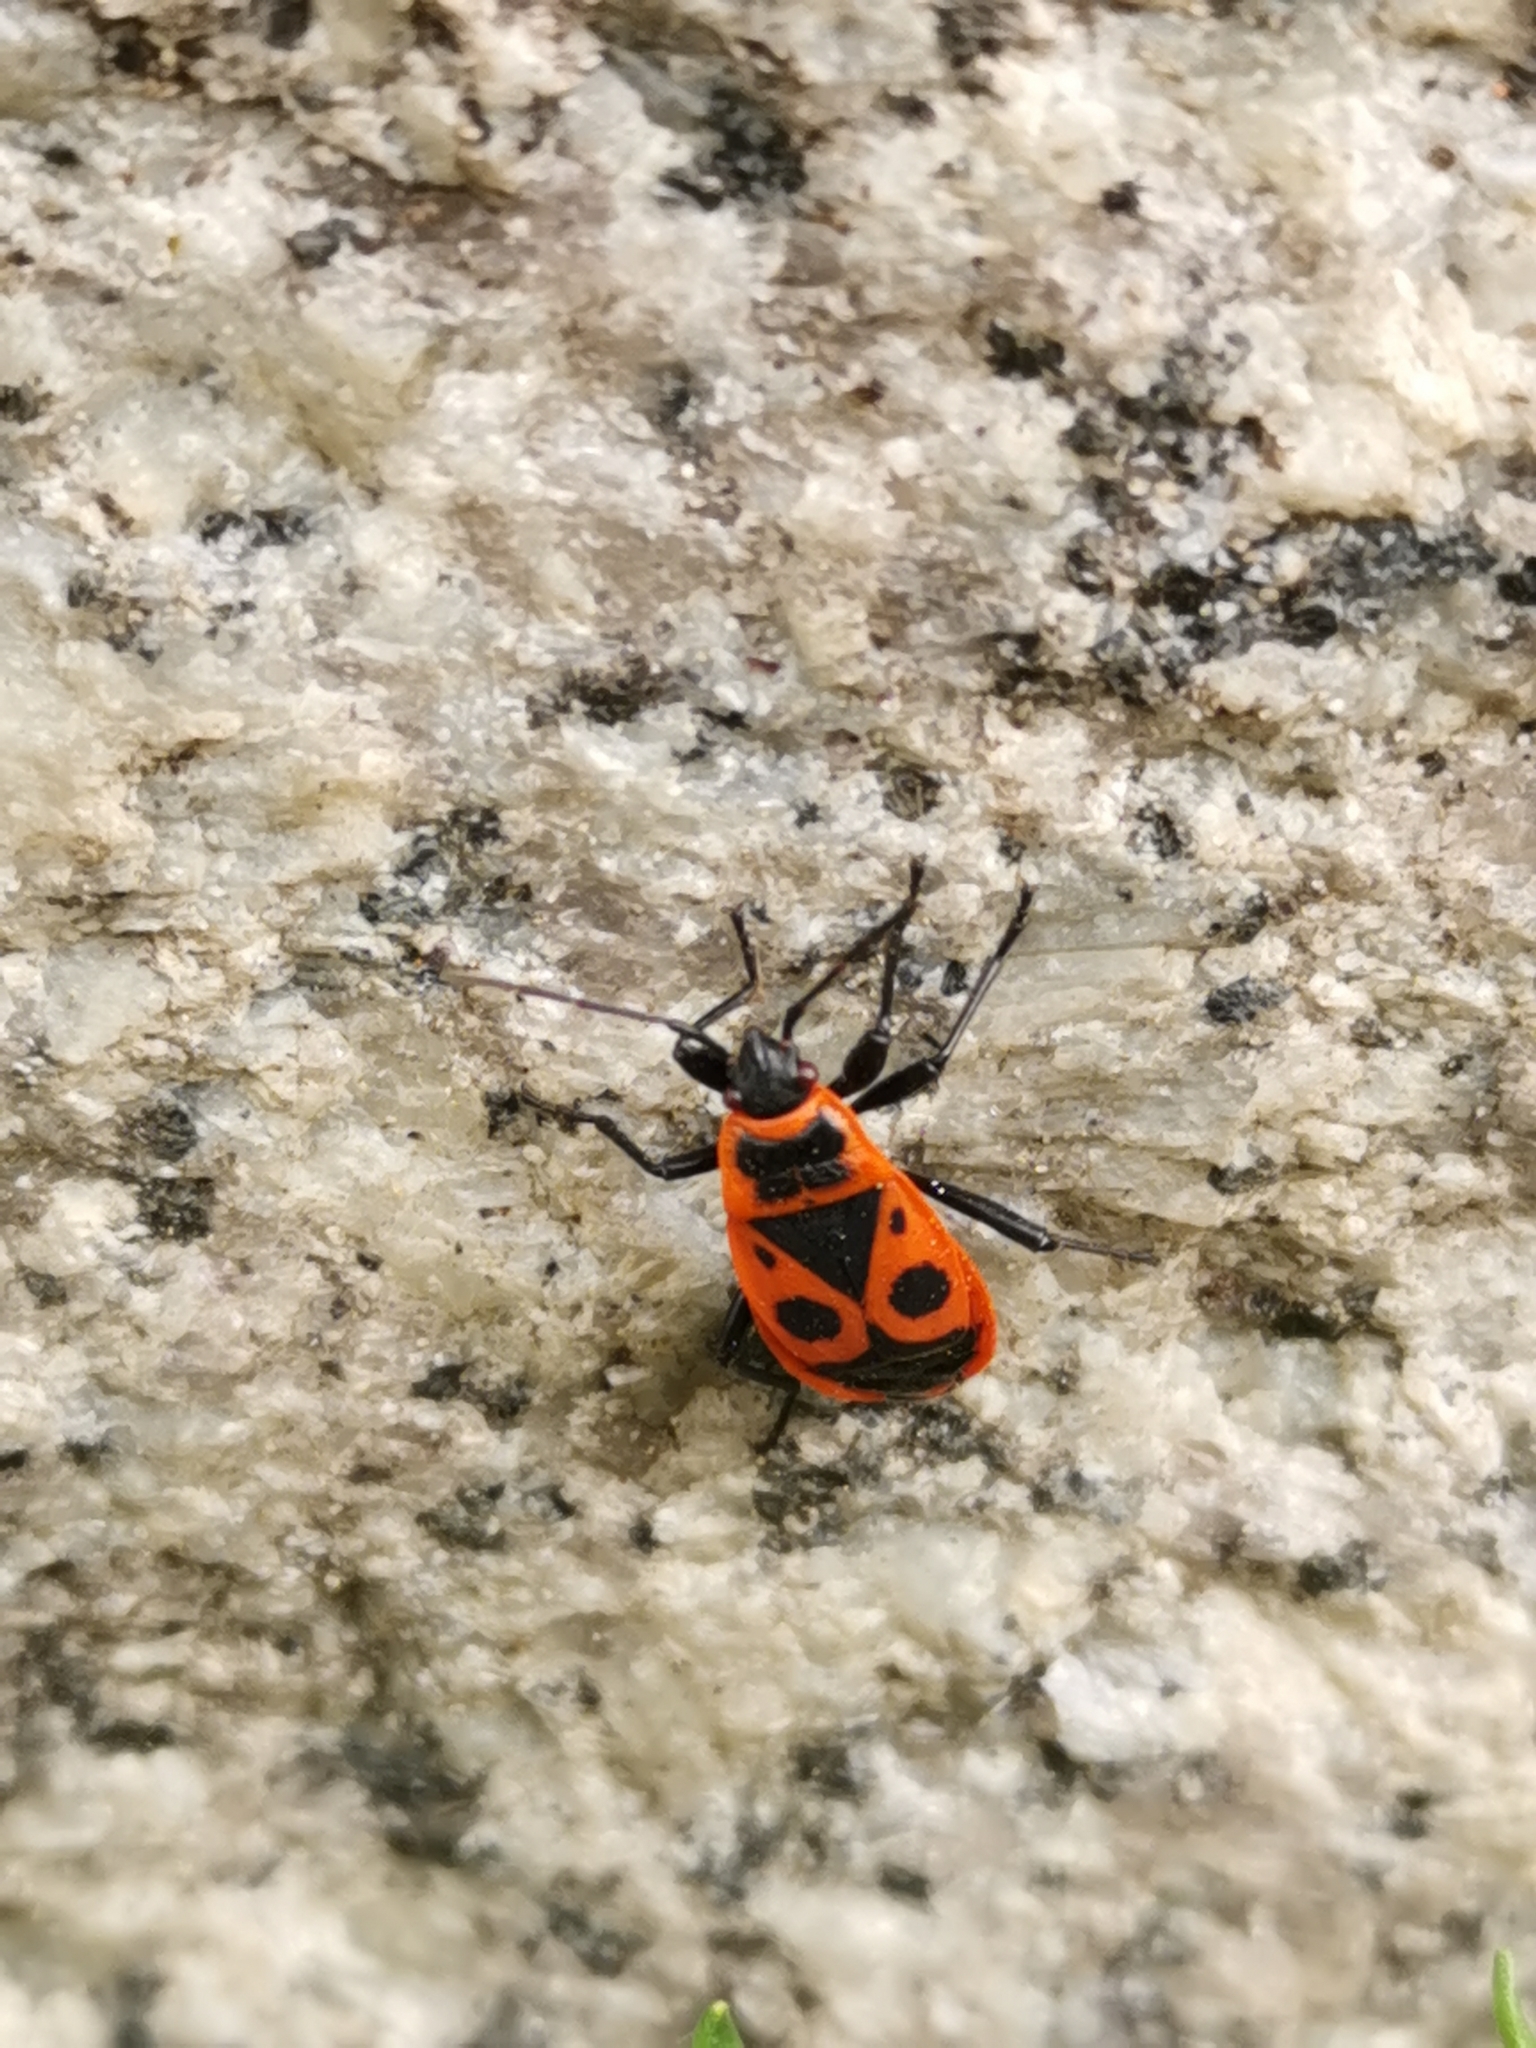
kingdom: Animalia
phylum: Arthropoda
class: Insecta
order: Hemiptera
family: Pyrrhocoridae
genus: Pyrrhocoris
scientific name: Pyrrhocoris apterus
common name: Firebug
